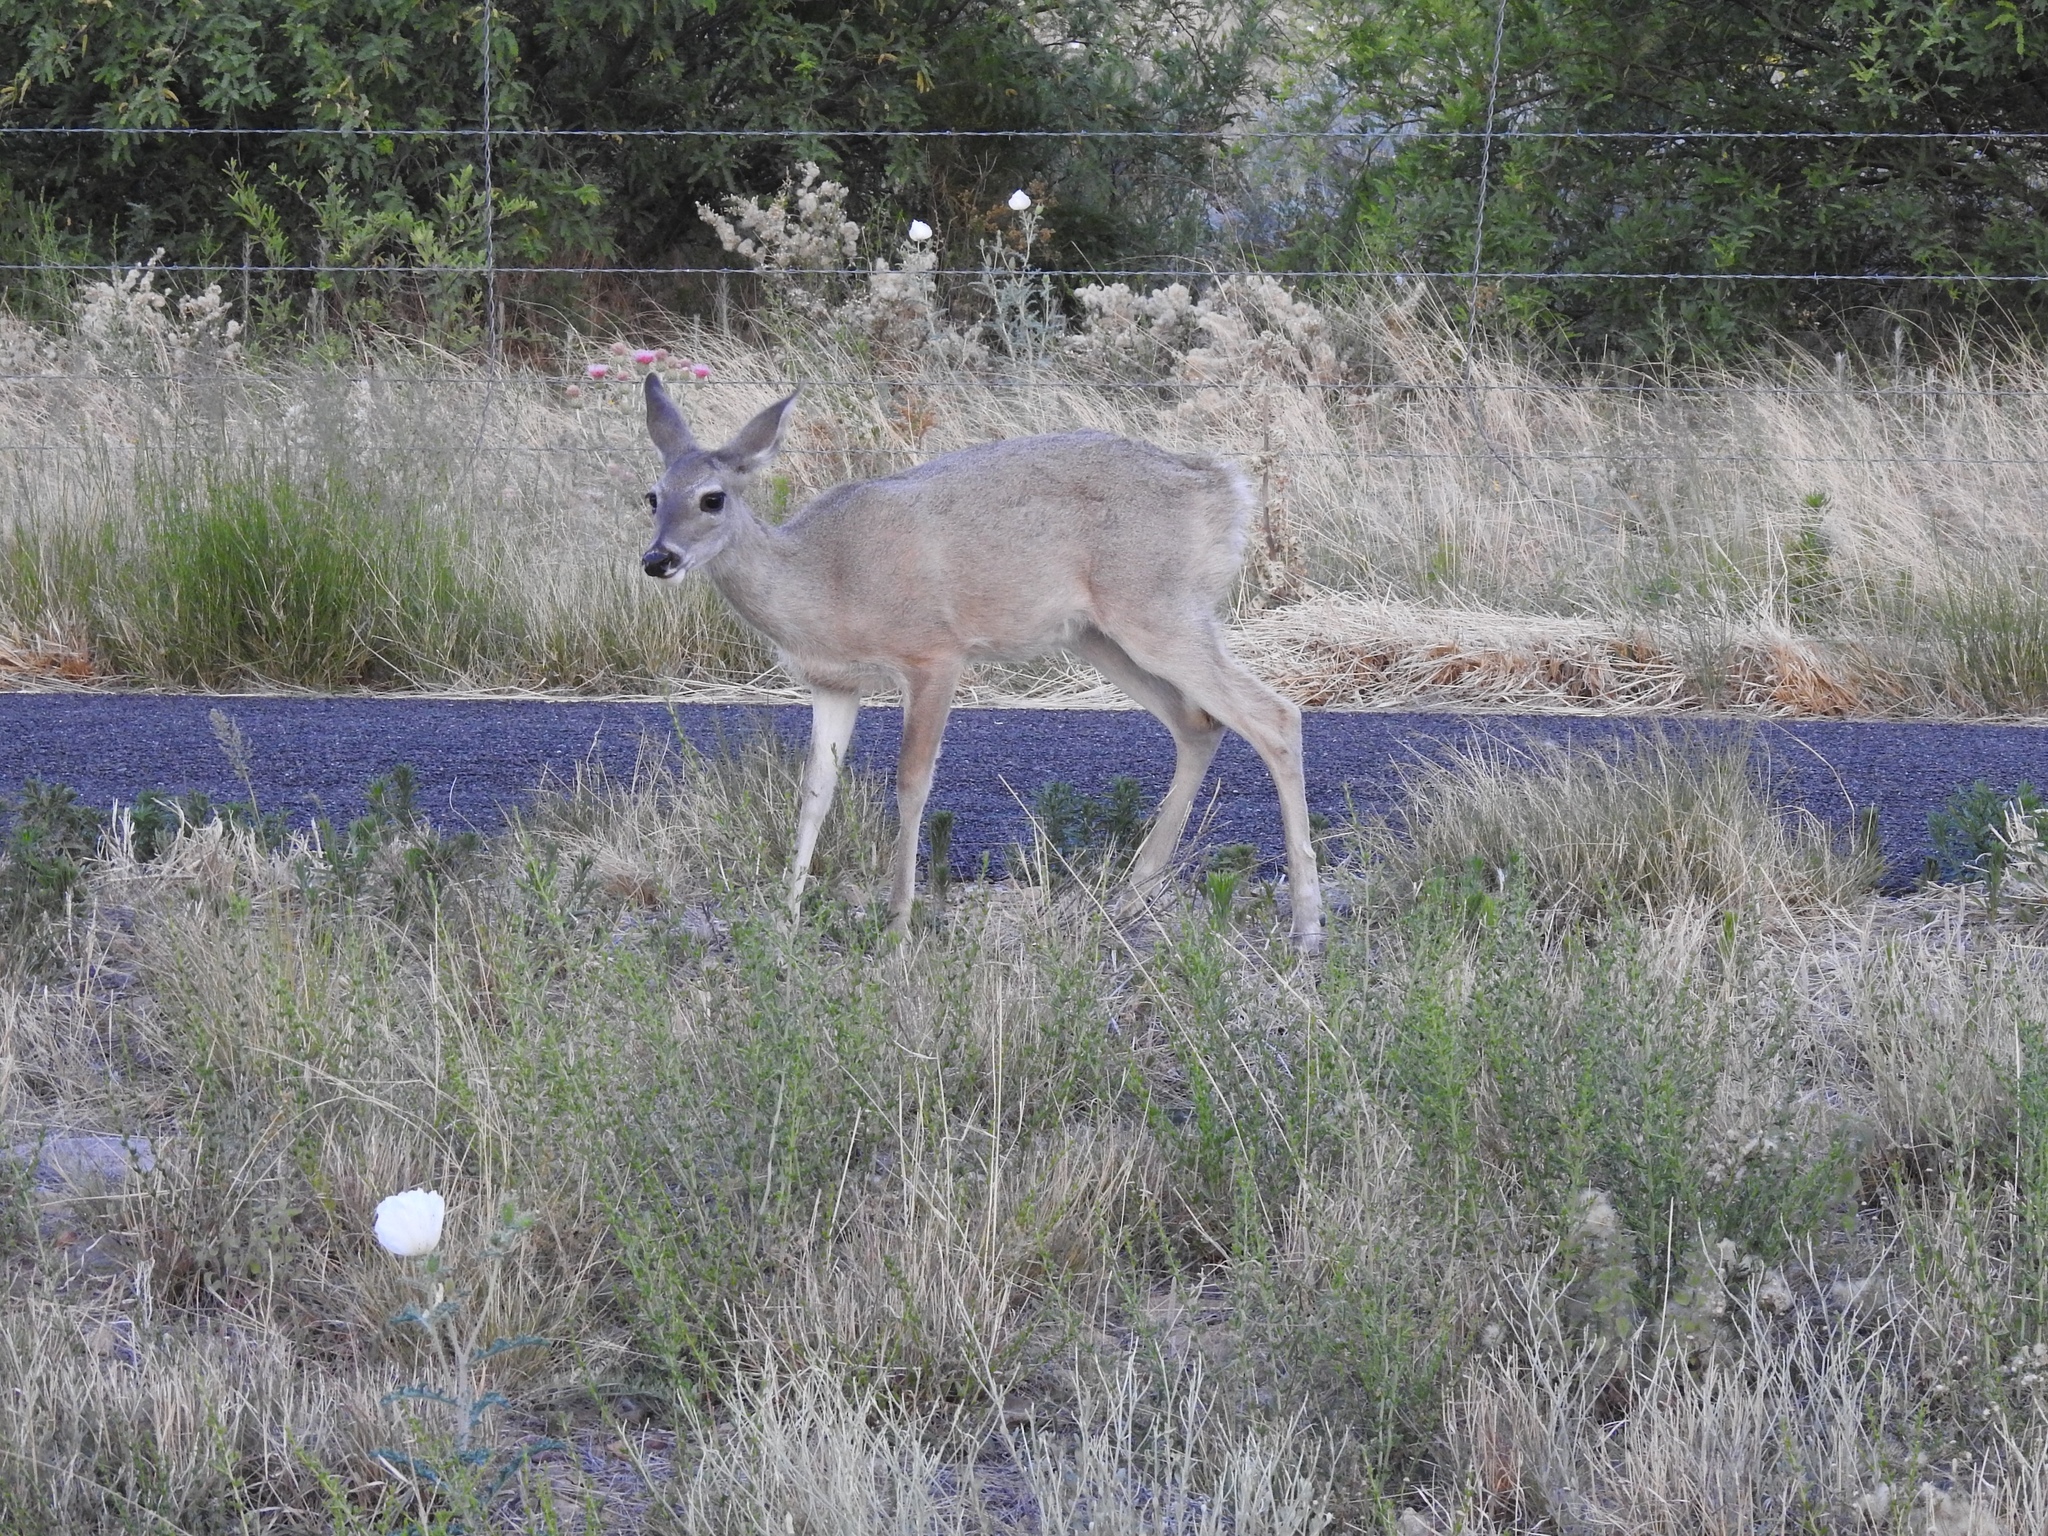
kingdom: Animalia
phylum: Chordata
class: Mammalia
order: Artiodactyla
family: Cervidae
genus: Odocoileus
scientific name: Odocoileus virginianus
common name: White-tailed deer
